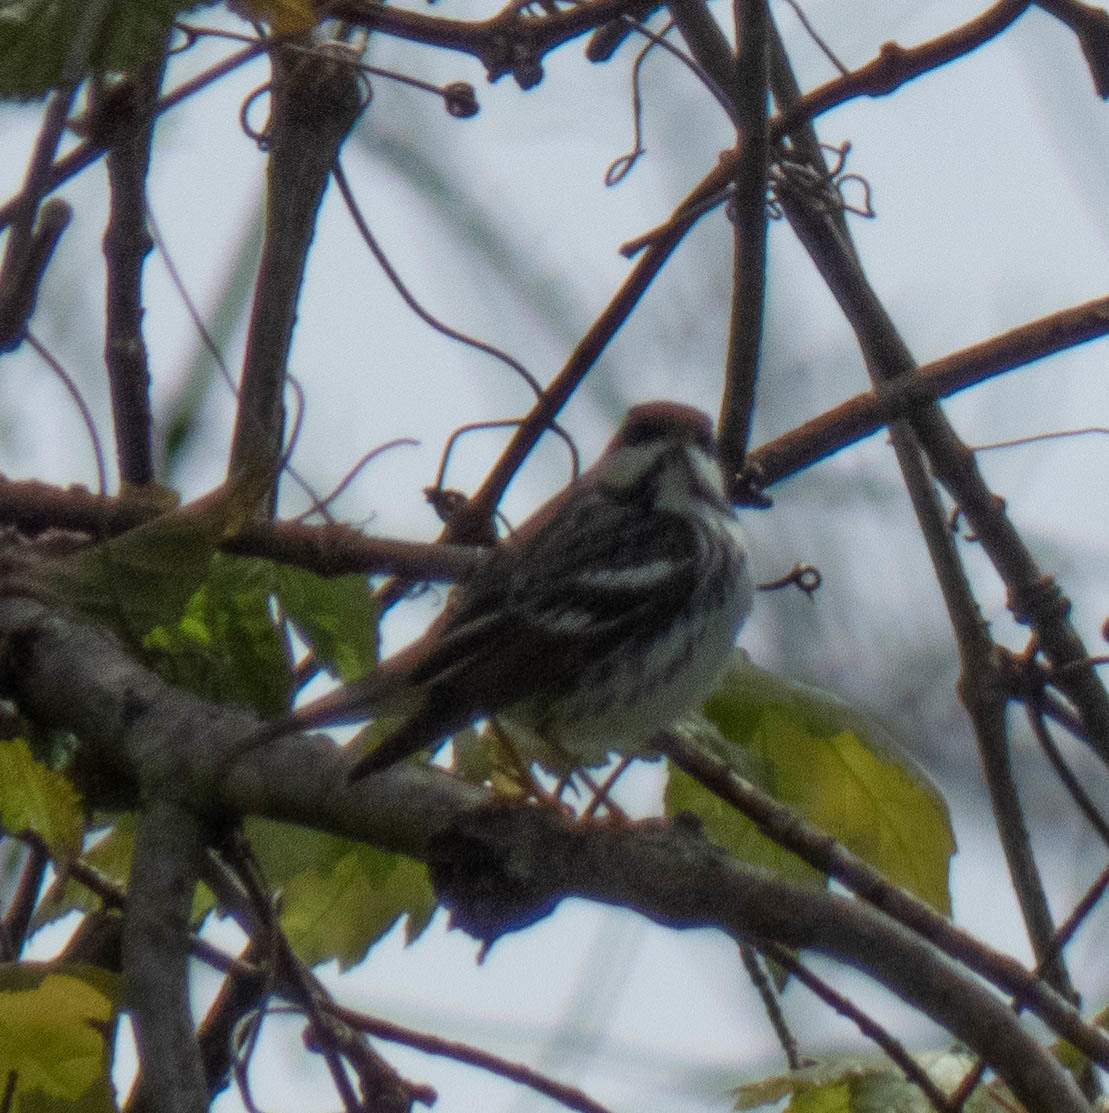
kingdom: Animalia
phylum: Chordata
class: Aves
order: Passeriformes
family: Parulidae
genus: Setophaga
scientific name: Setophaga striata
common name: Blackpoll warbler
